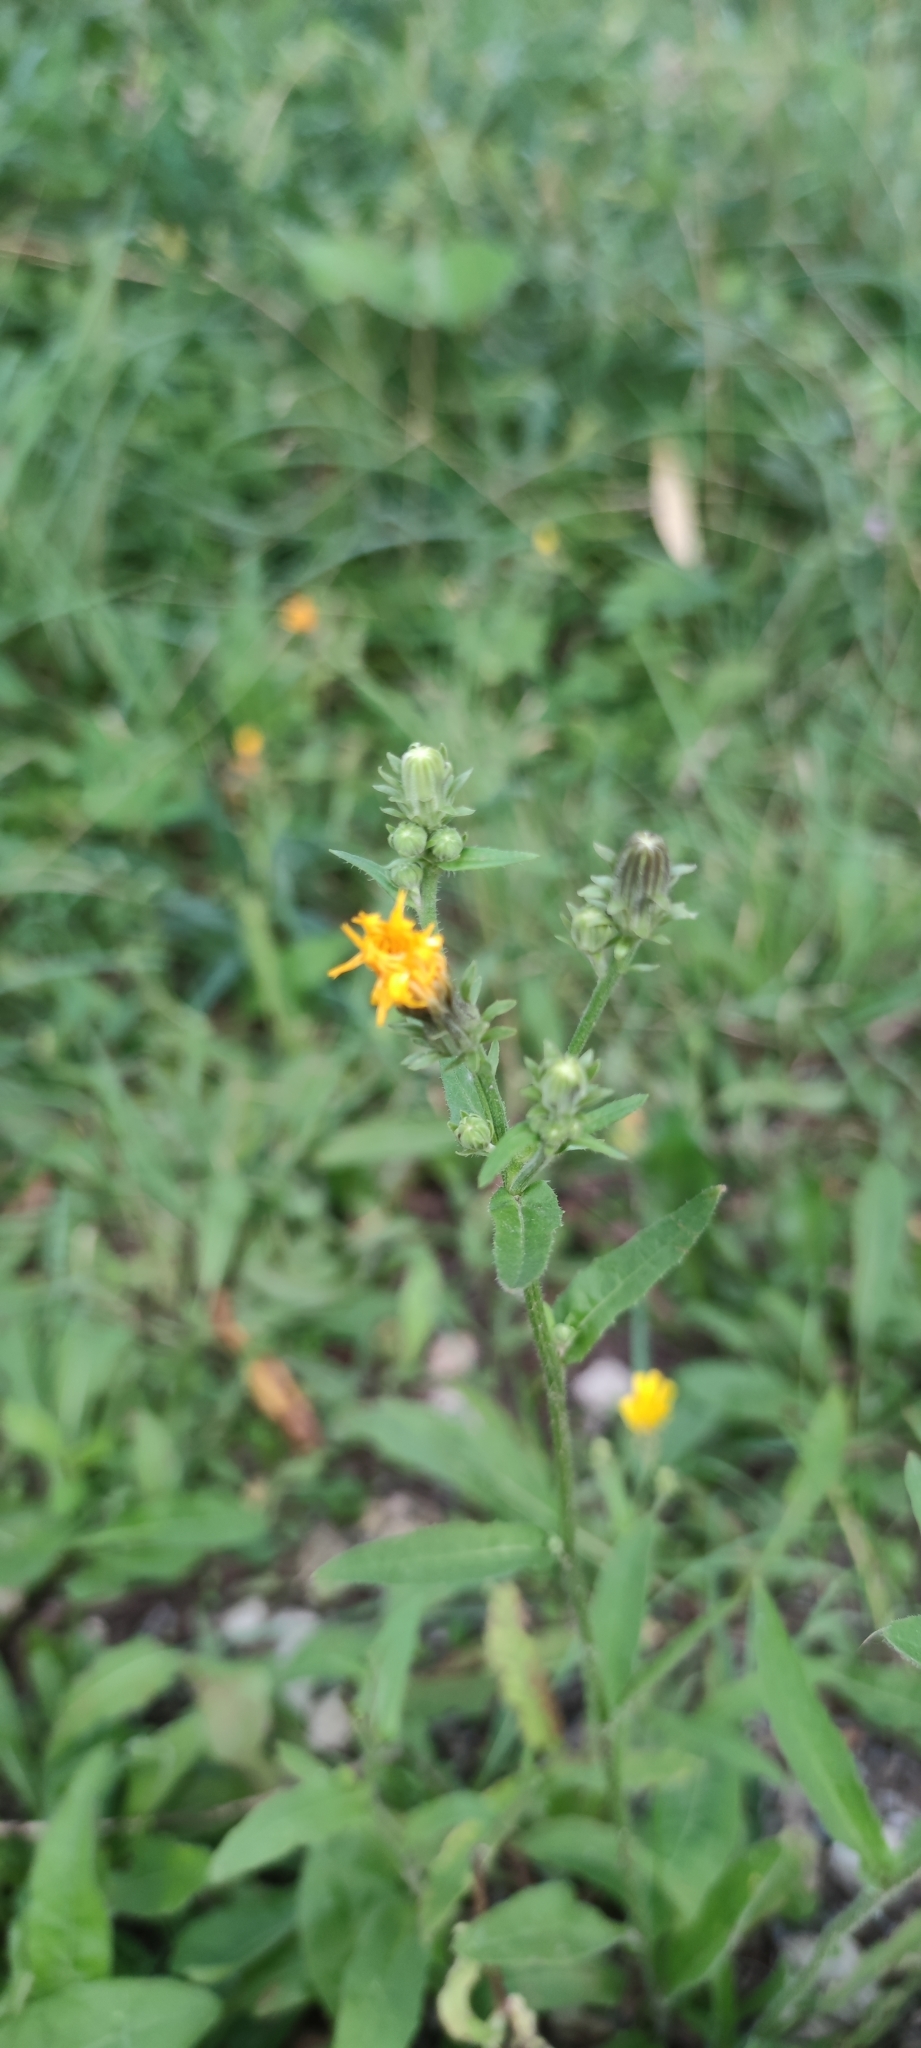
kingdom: Plantae
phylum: Tracheophyta
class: Magnoliopsida
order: Asterales
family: Asteraceae
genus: Picris
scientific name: Picris hieracioides
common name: Hawkweed oxtongue
